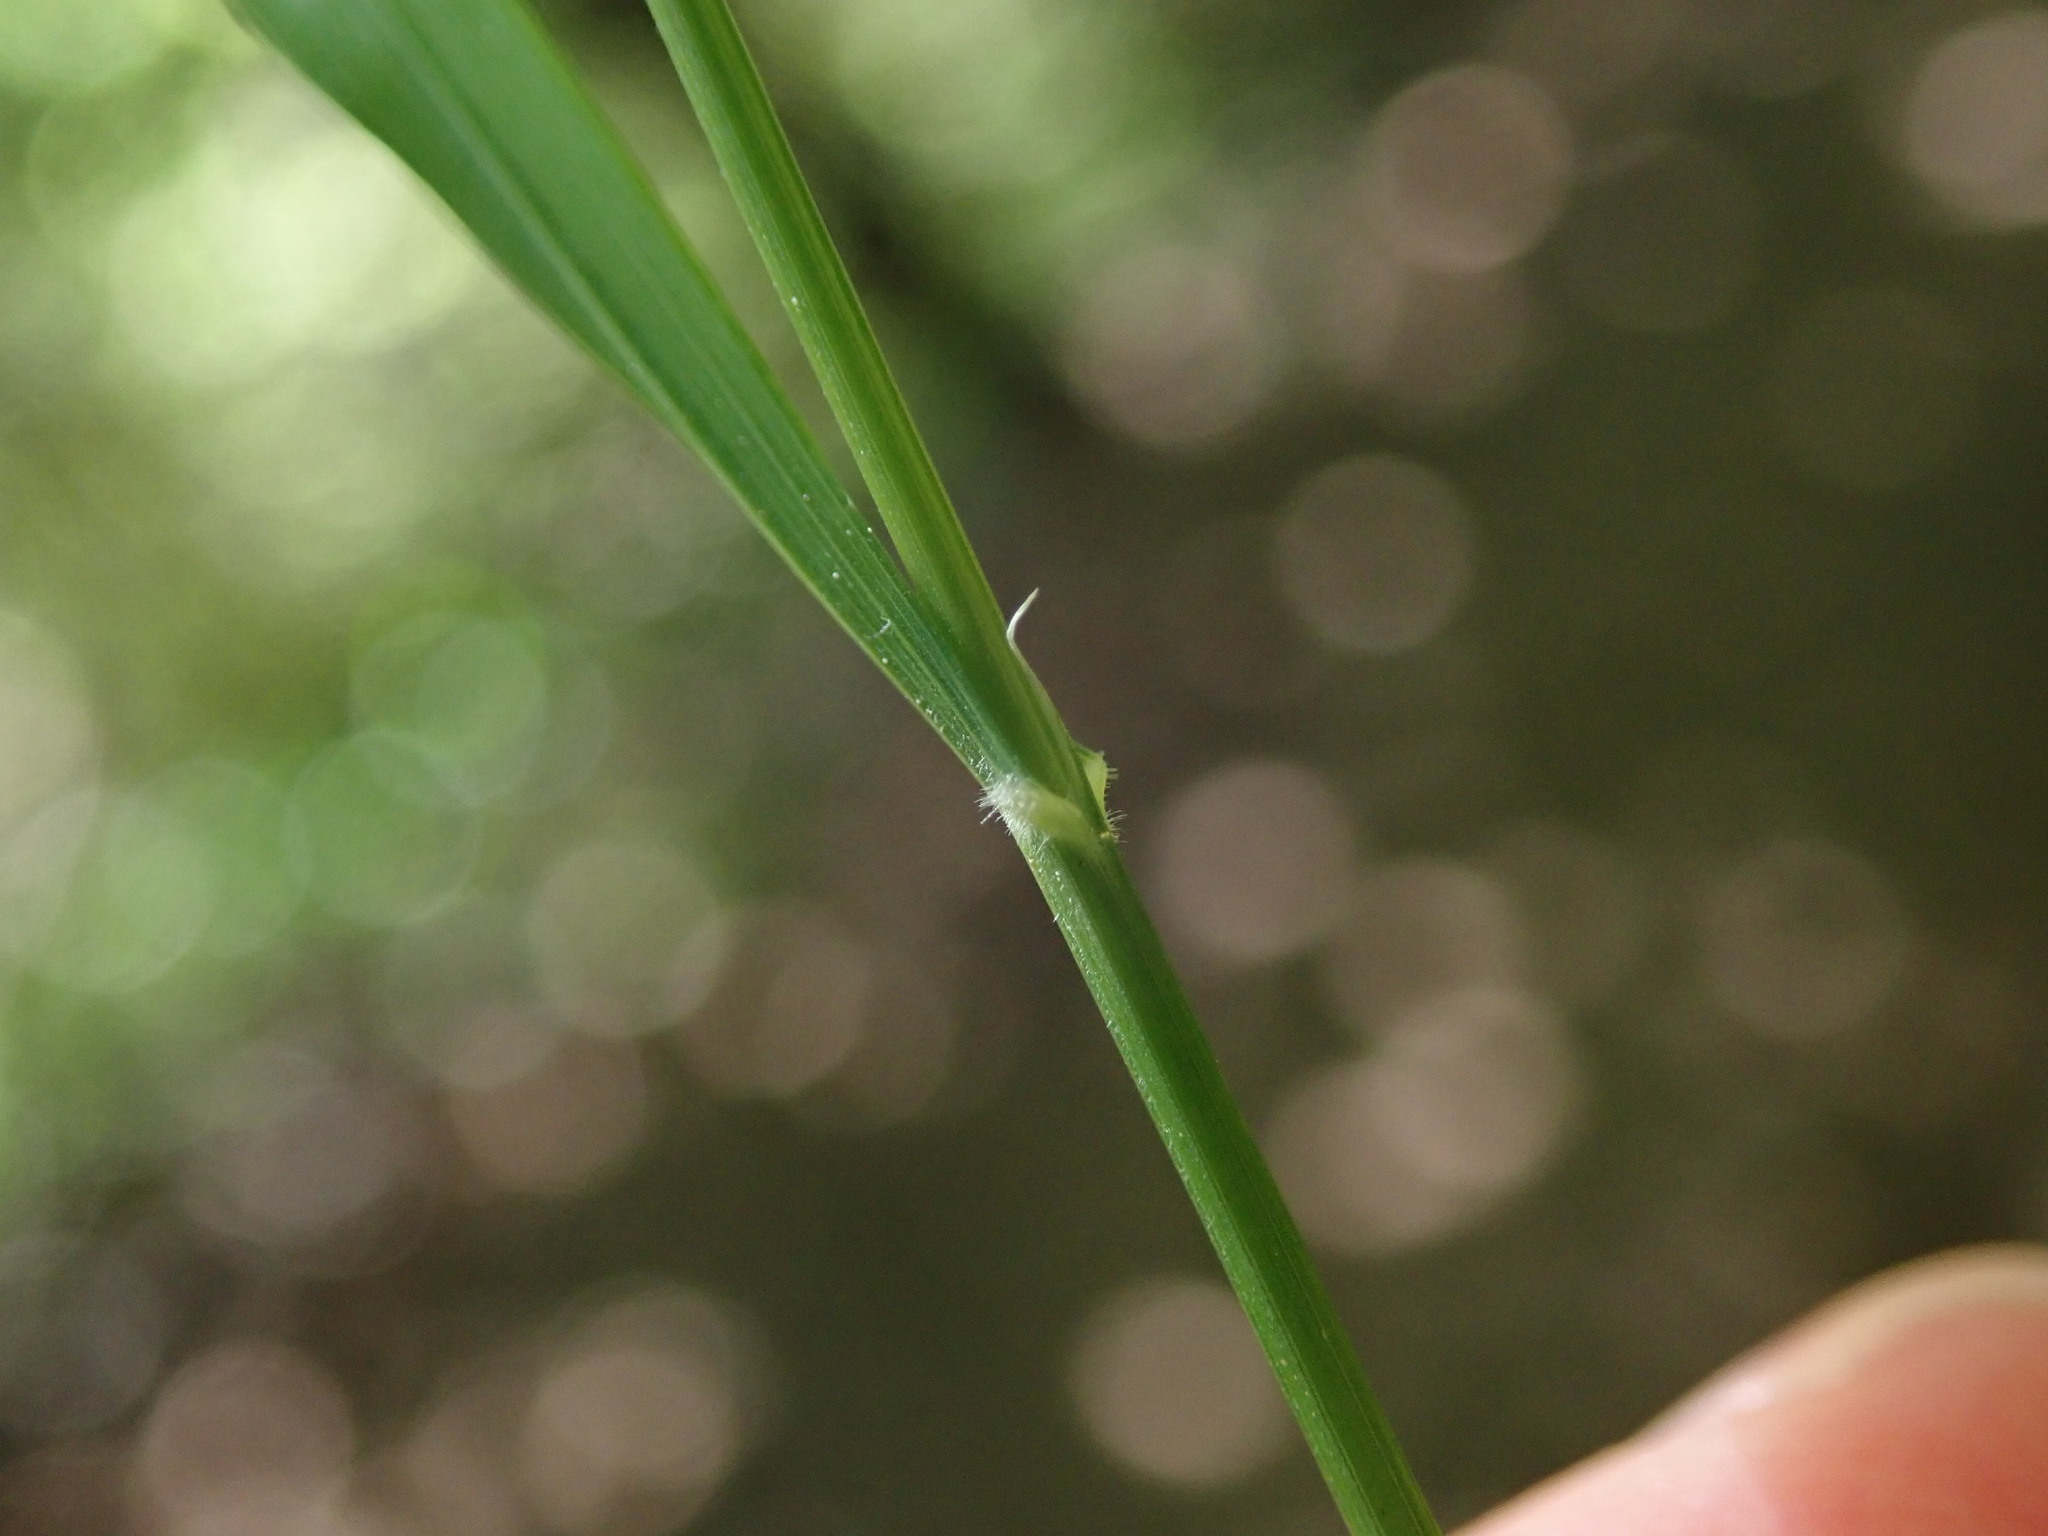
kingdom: Plantae
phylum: Tracheophyta
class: Liliopsida
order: Poales
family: Poaceae
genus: Melica
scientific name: Melica uniflora
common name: Wood melick
